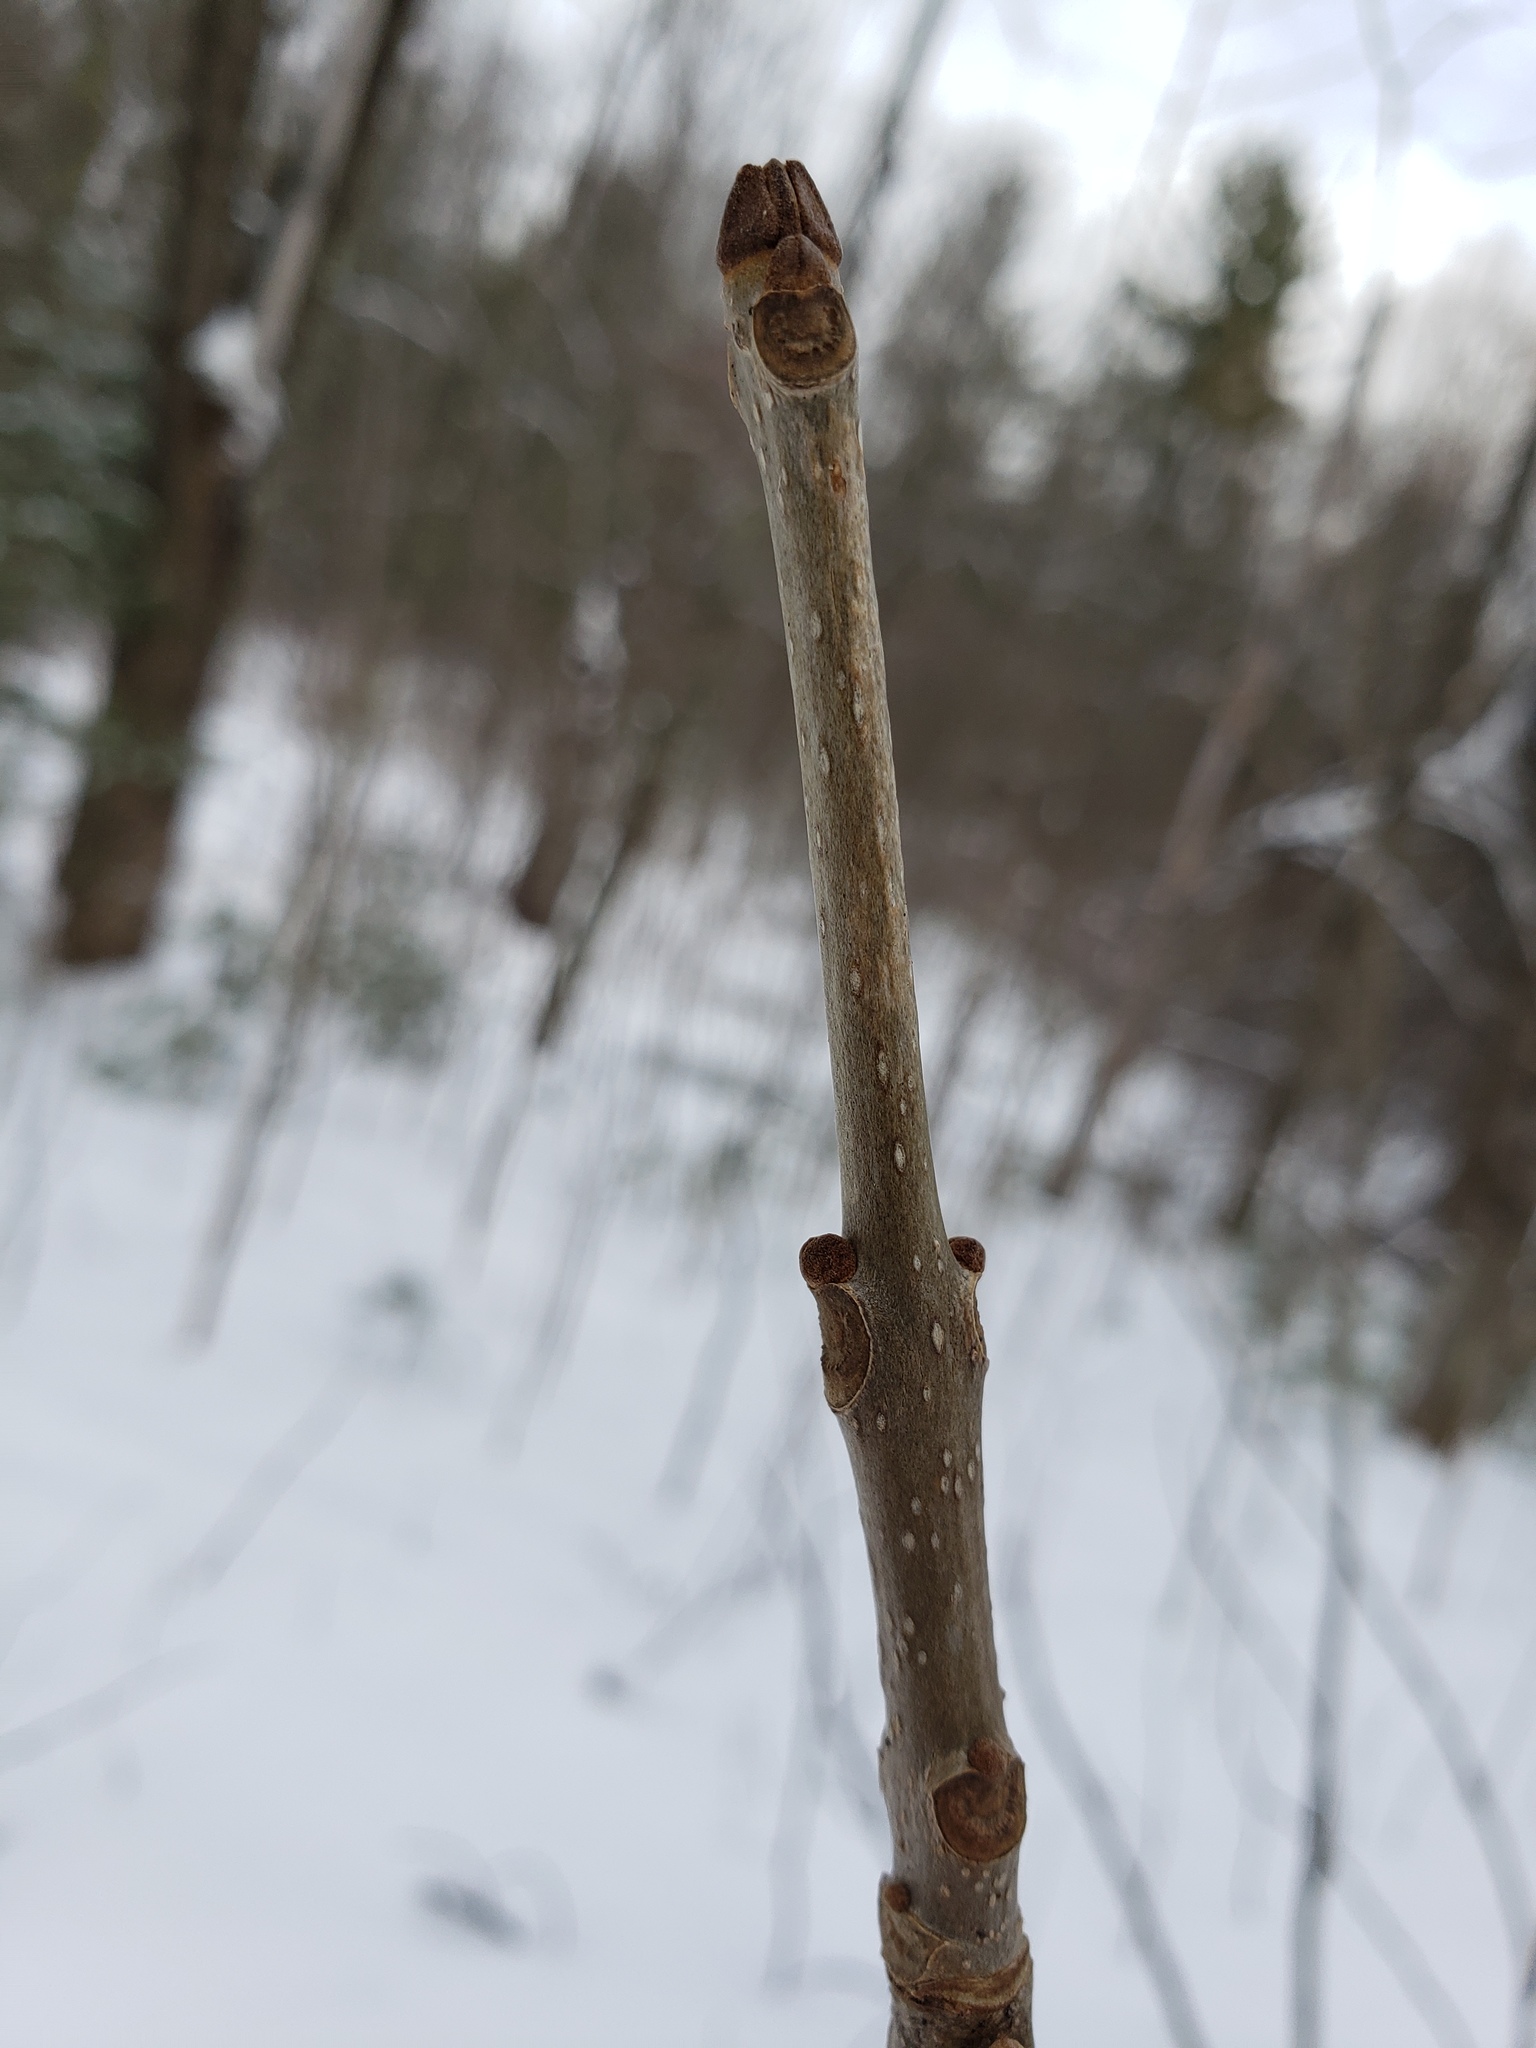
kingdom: Plantae
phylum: Tracheophyta
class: Magnoliopsida
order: Lamiales
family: Oleaceae
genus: Fraxinus
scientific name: Fraxinus pennsylvanica
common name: Green ash
